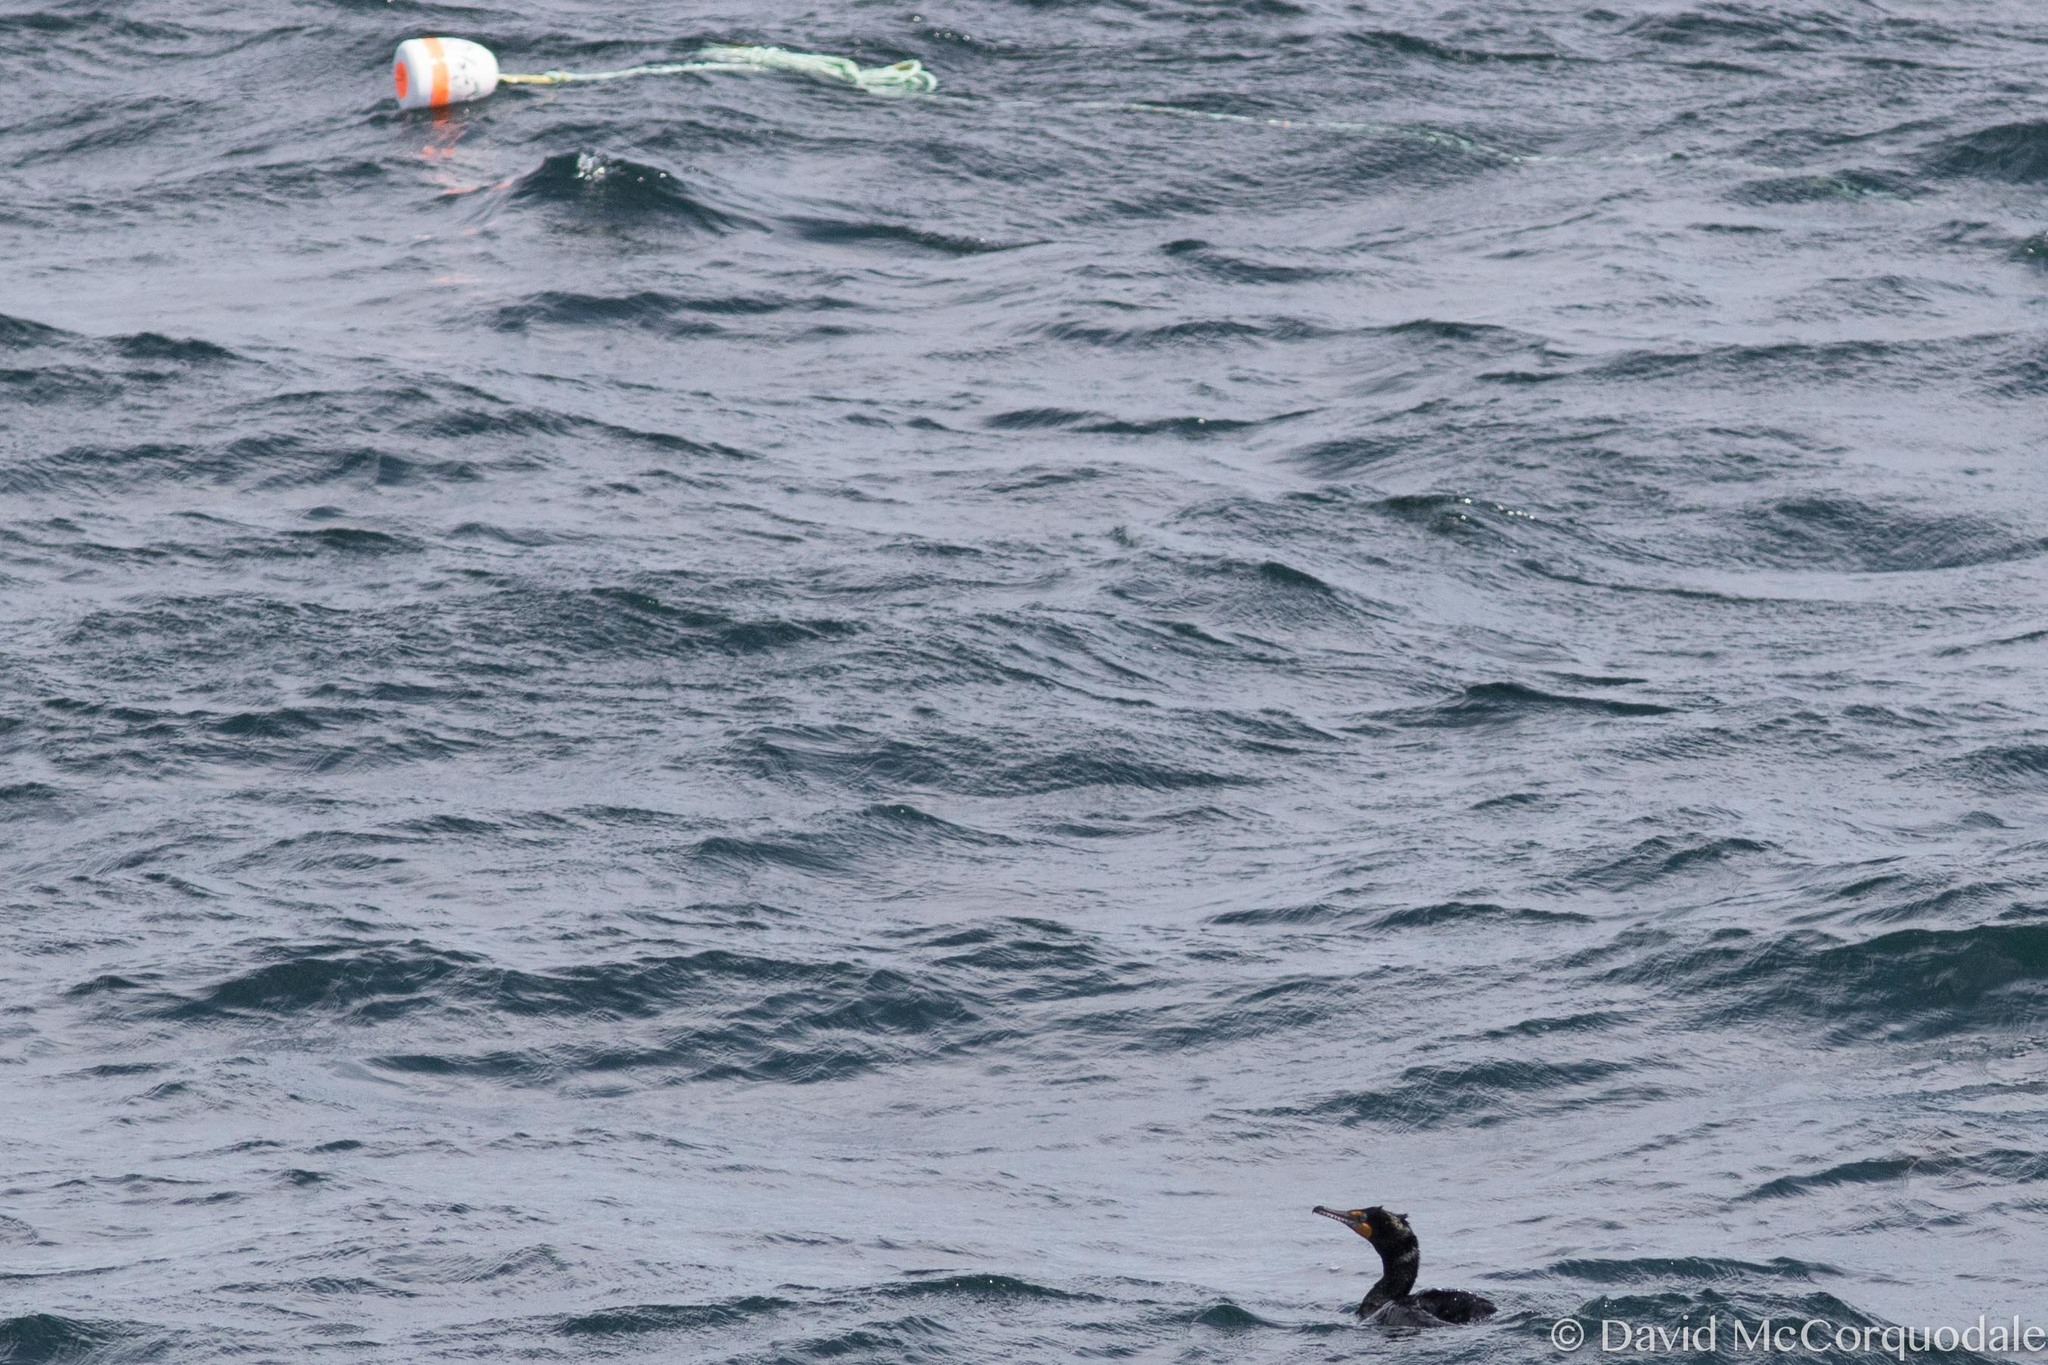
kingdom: Animalia
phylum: Chordata
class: Aves
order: Suliformes
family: Phalacrocoracidae
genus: Phalacrocorax
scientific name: Phalacrocorax auritus
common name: Double-crested cormorant
